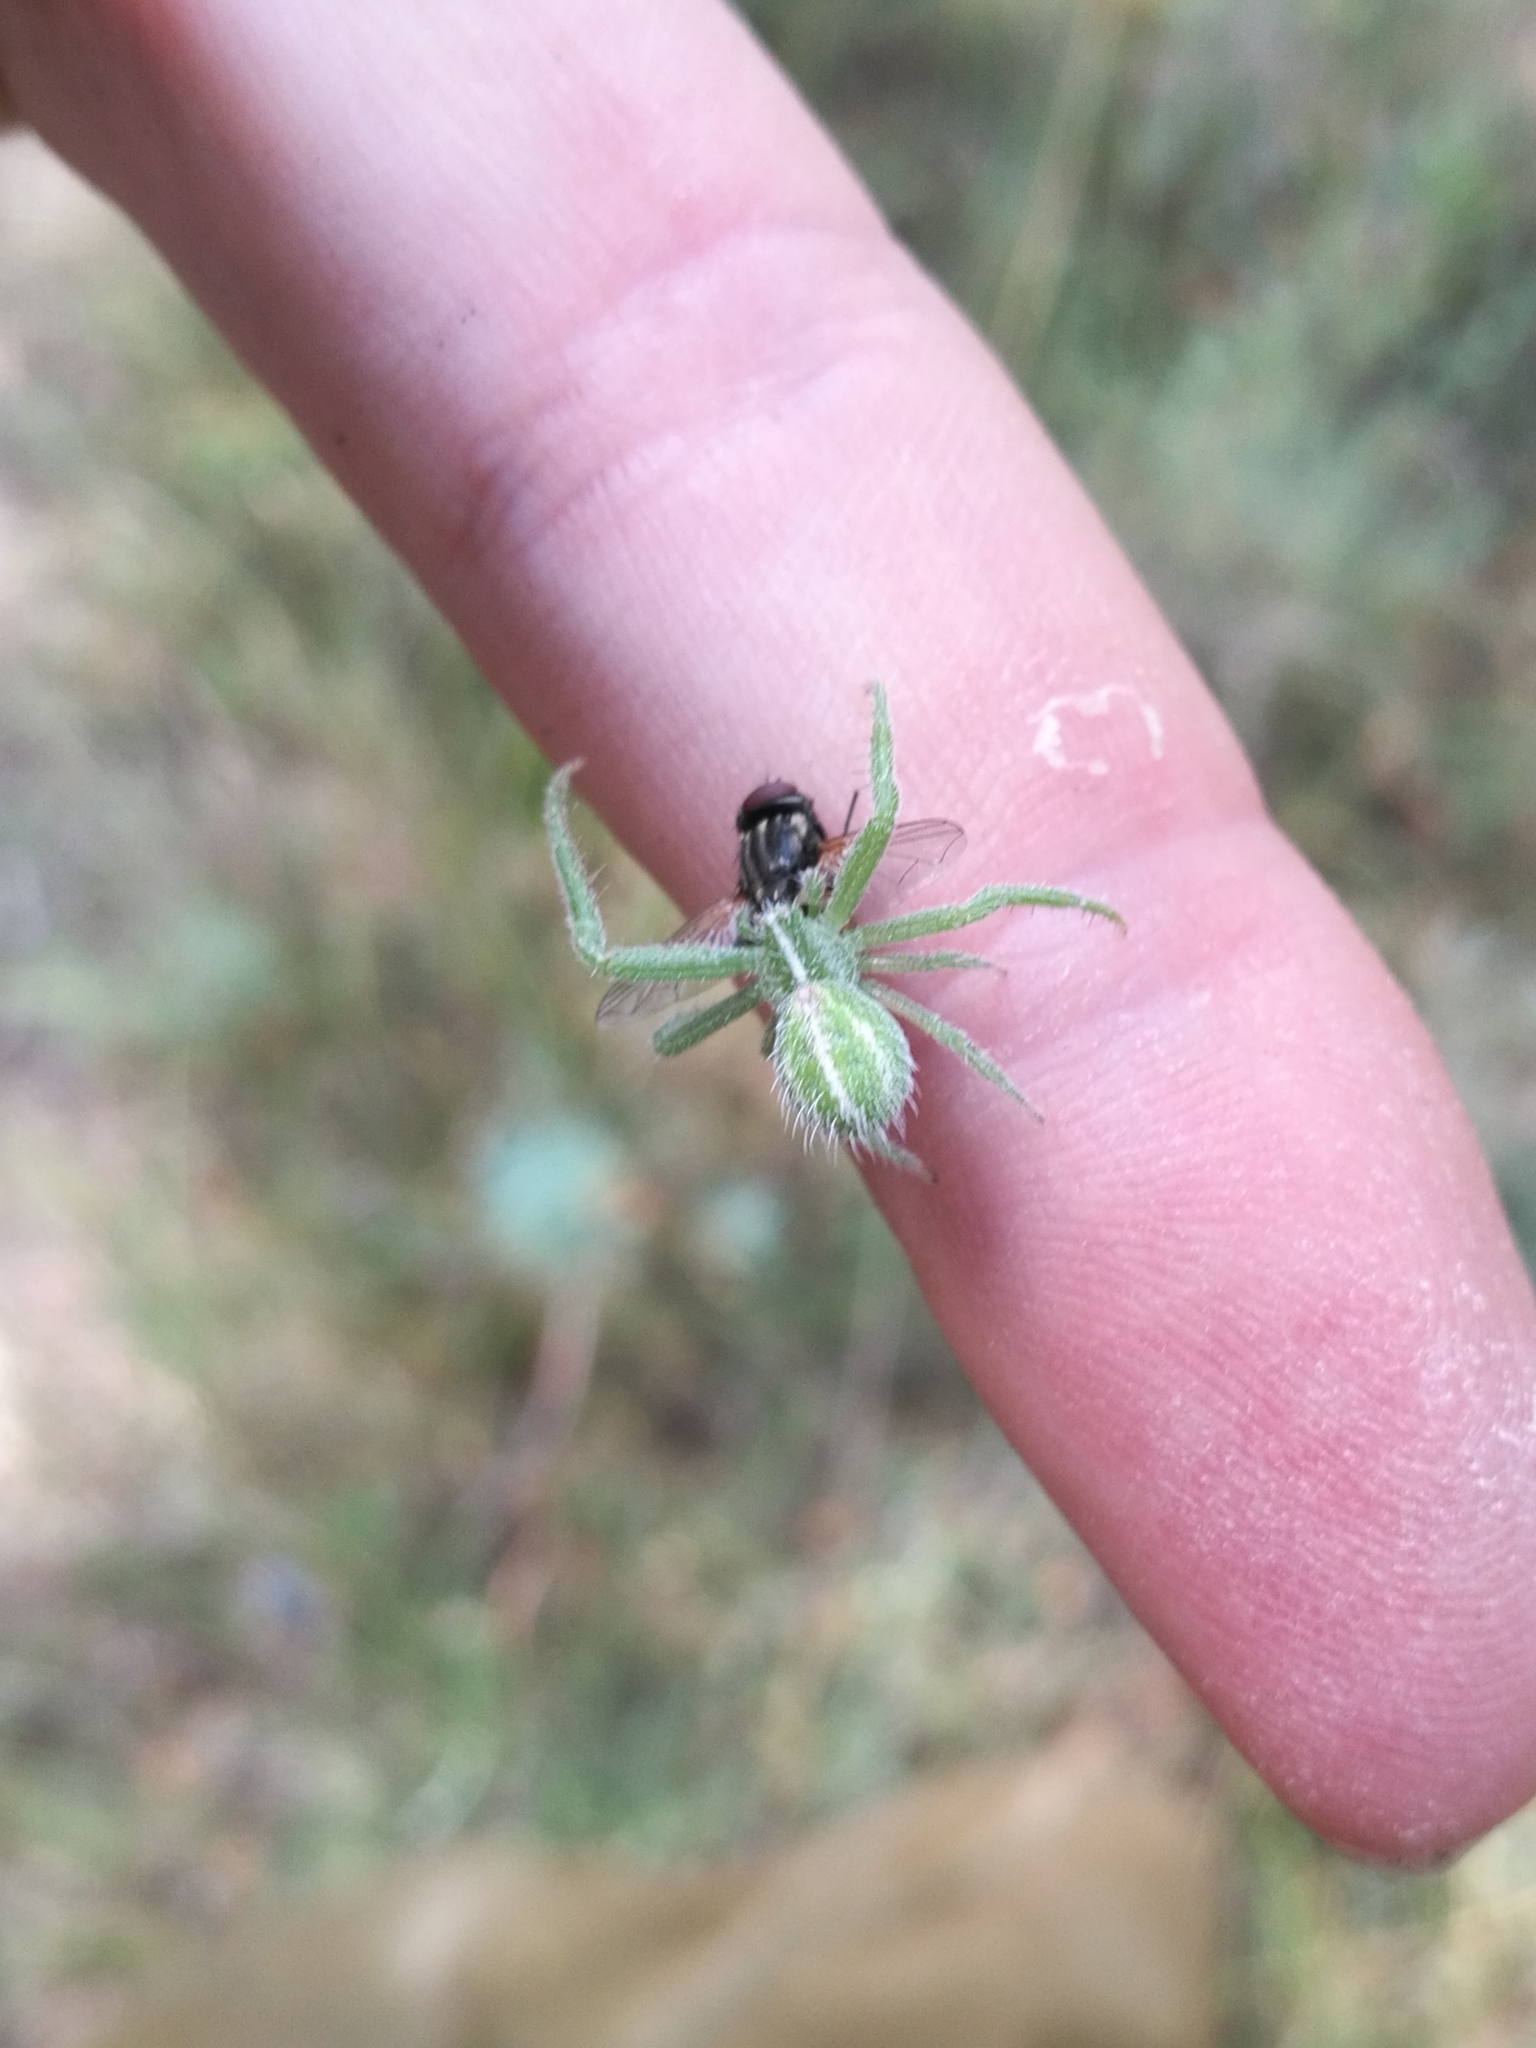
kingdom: Animalia
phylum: Arthropoda
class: Arachnida
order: Araneae
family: Thomisidae
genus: Heriaeus
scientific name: Heriaeus oblongus
